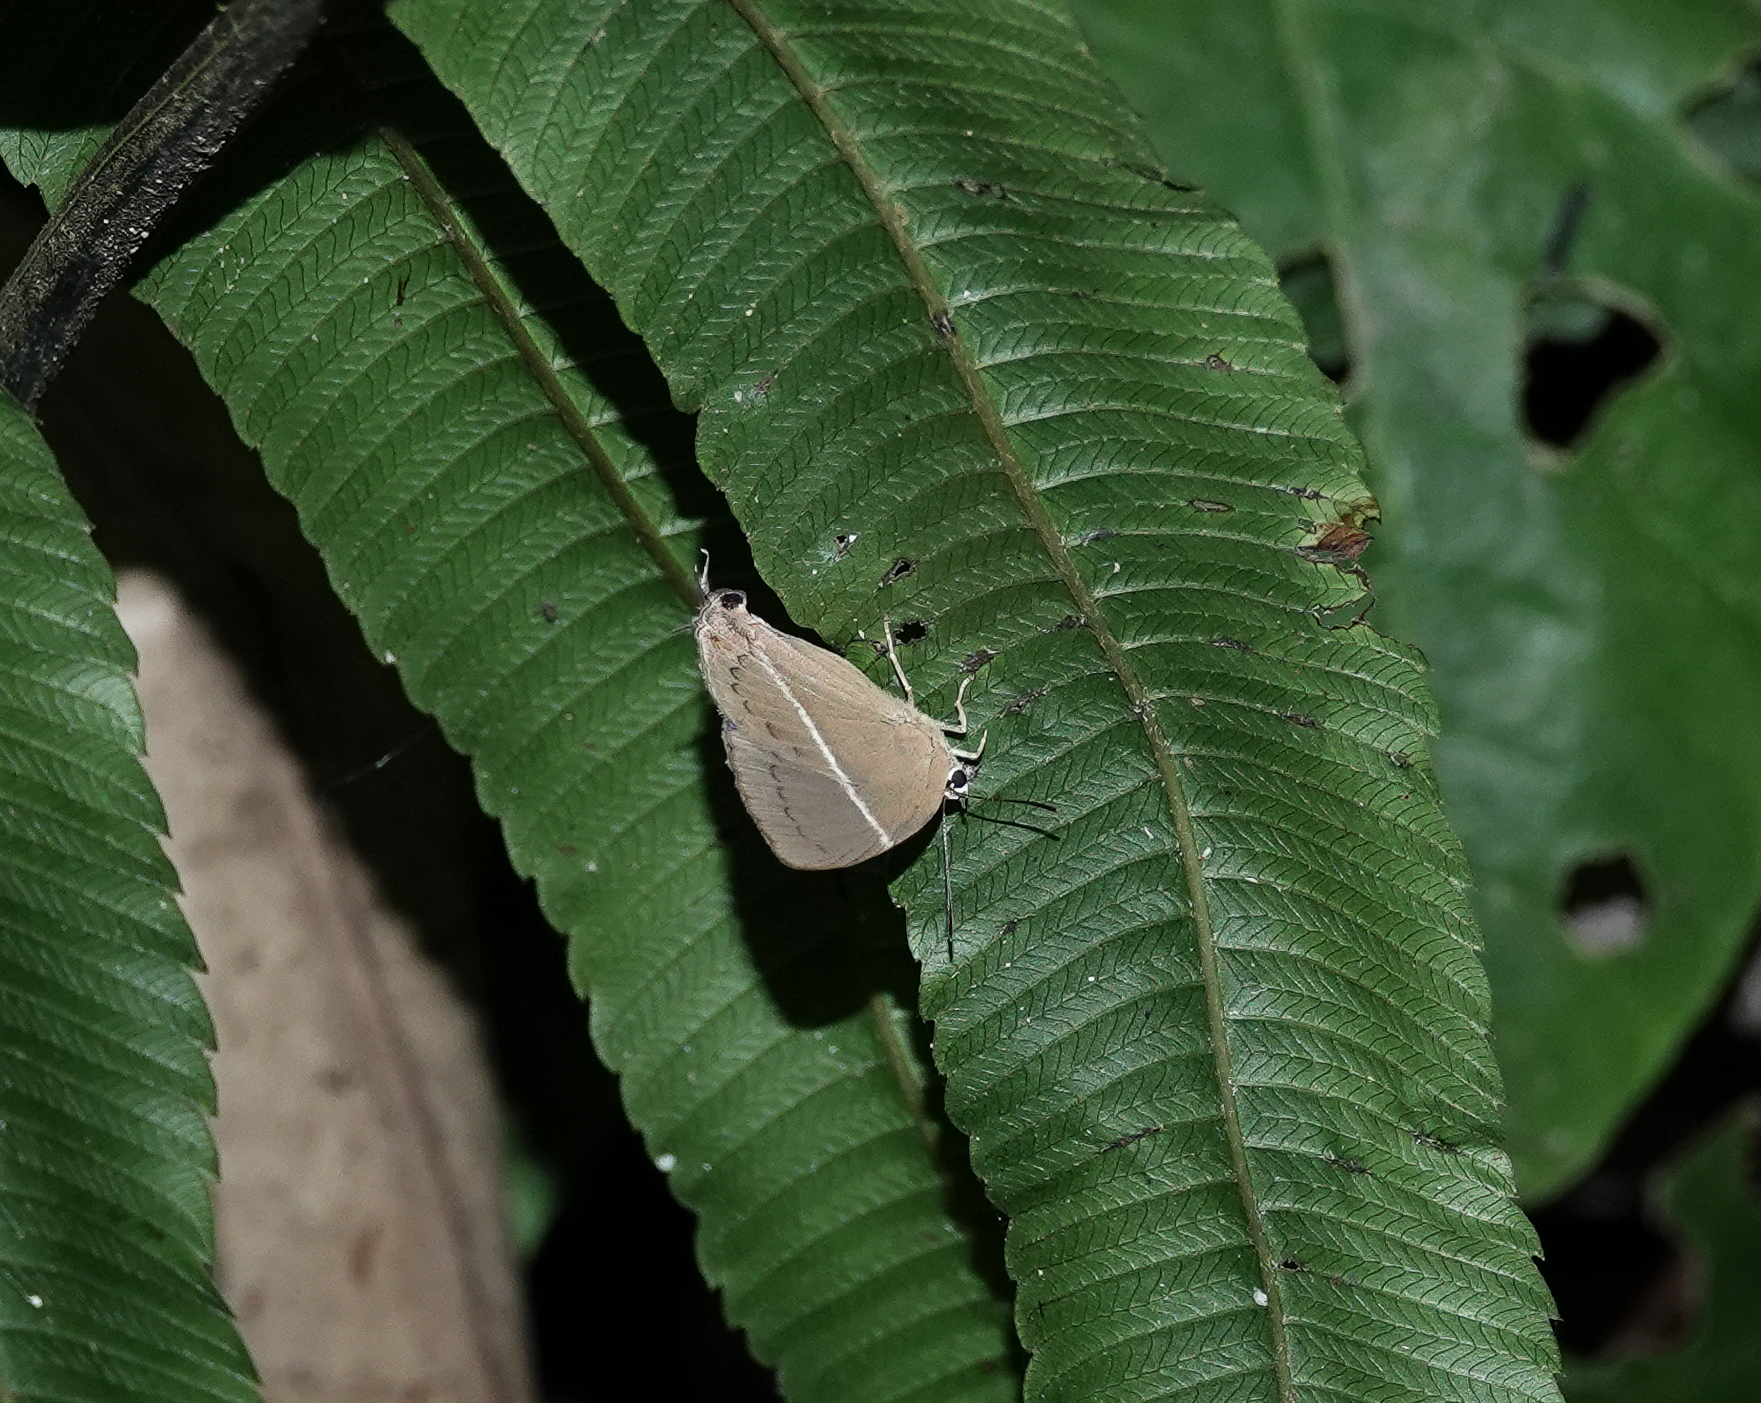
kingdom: Animalia
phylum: Arthropoda
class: Insecta
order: Lepidoptera
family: Lycaenidae
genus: Dacalana
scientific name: Dacalana pencilligera
